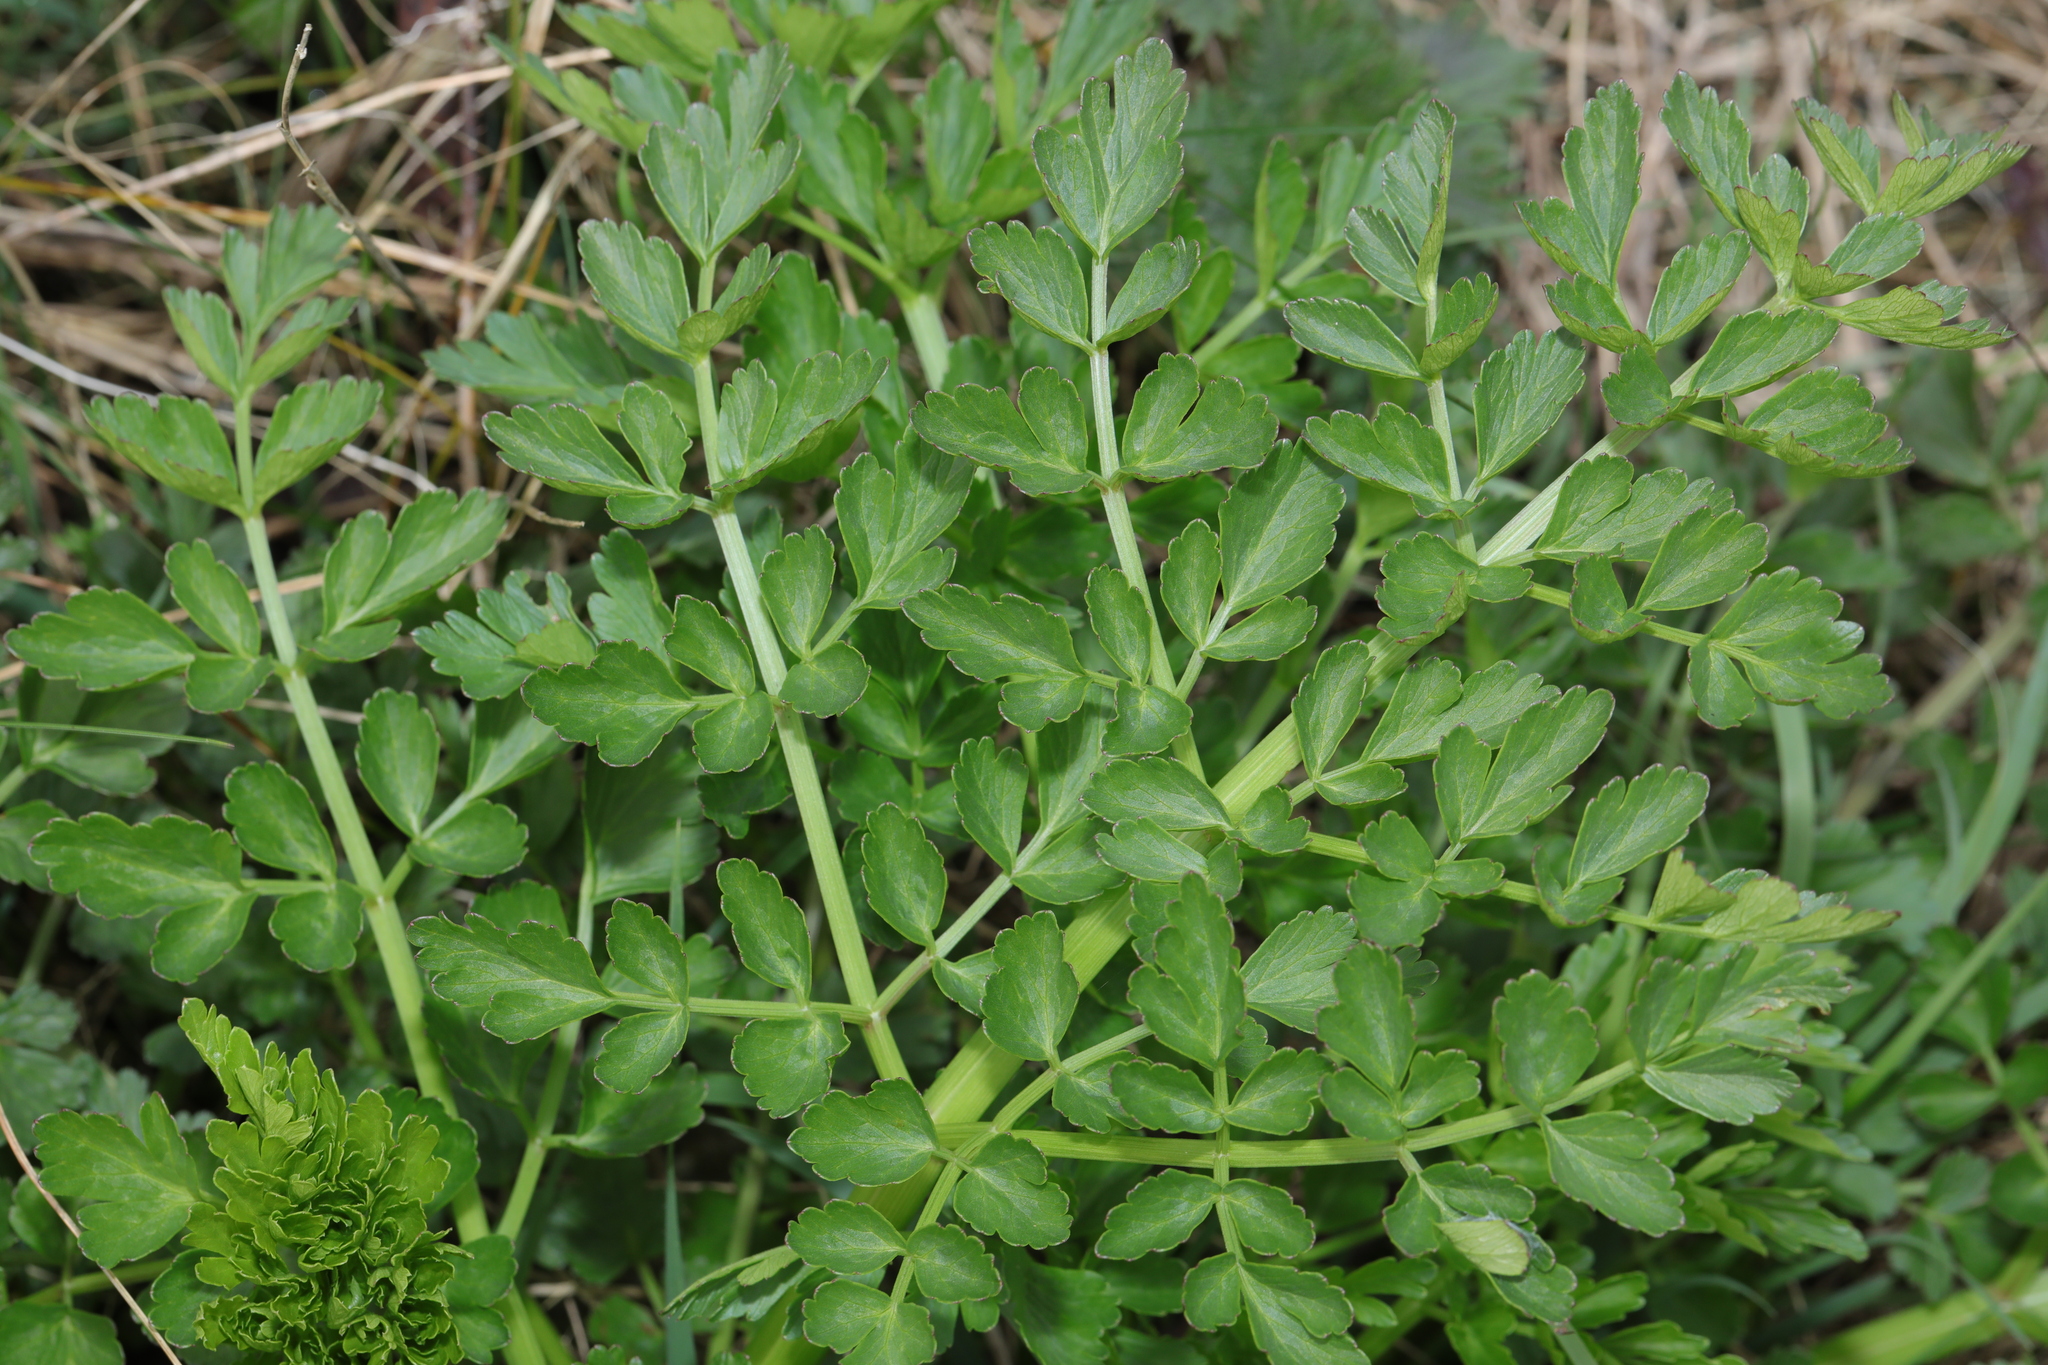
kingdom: Plantae
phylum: Tracheophyta
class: Magnoliopsida
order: Apiales
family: Apiaceae
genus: Oenanthe
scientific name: Oenanthe crocata
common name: Hemlock water-dropwort
